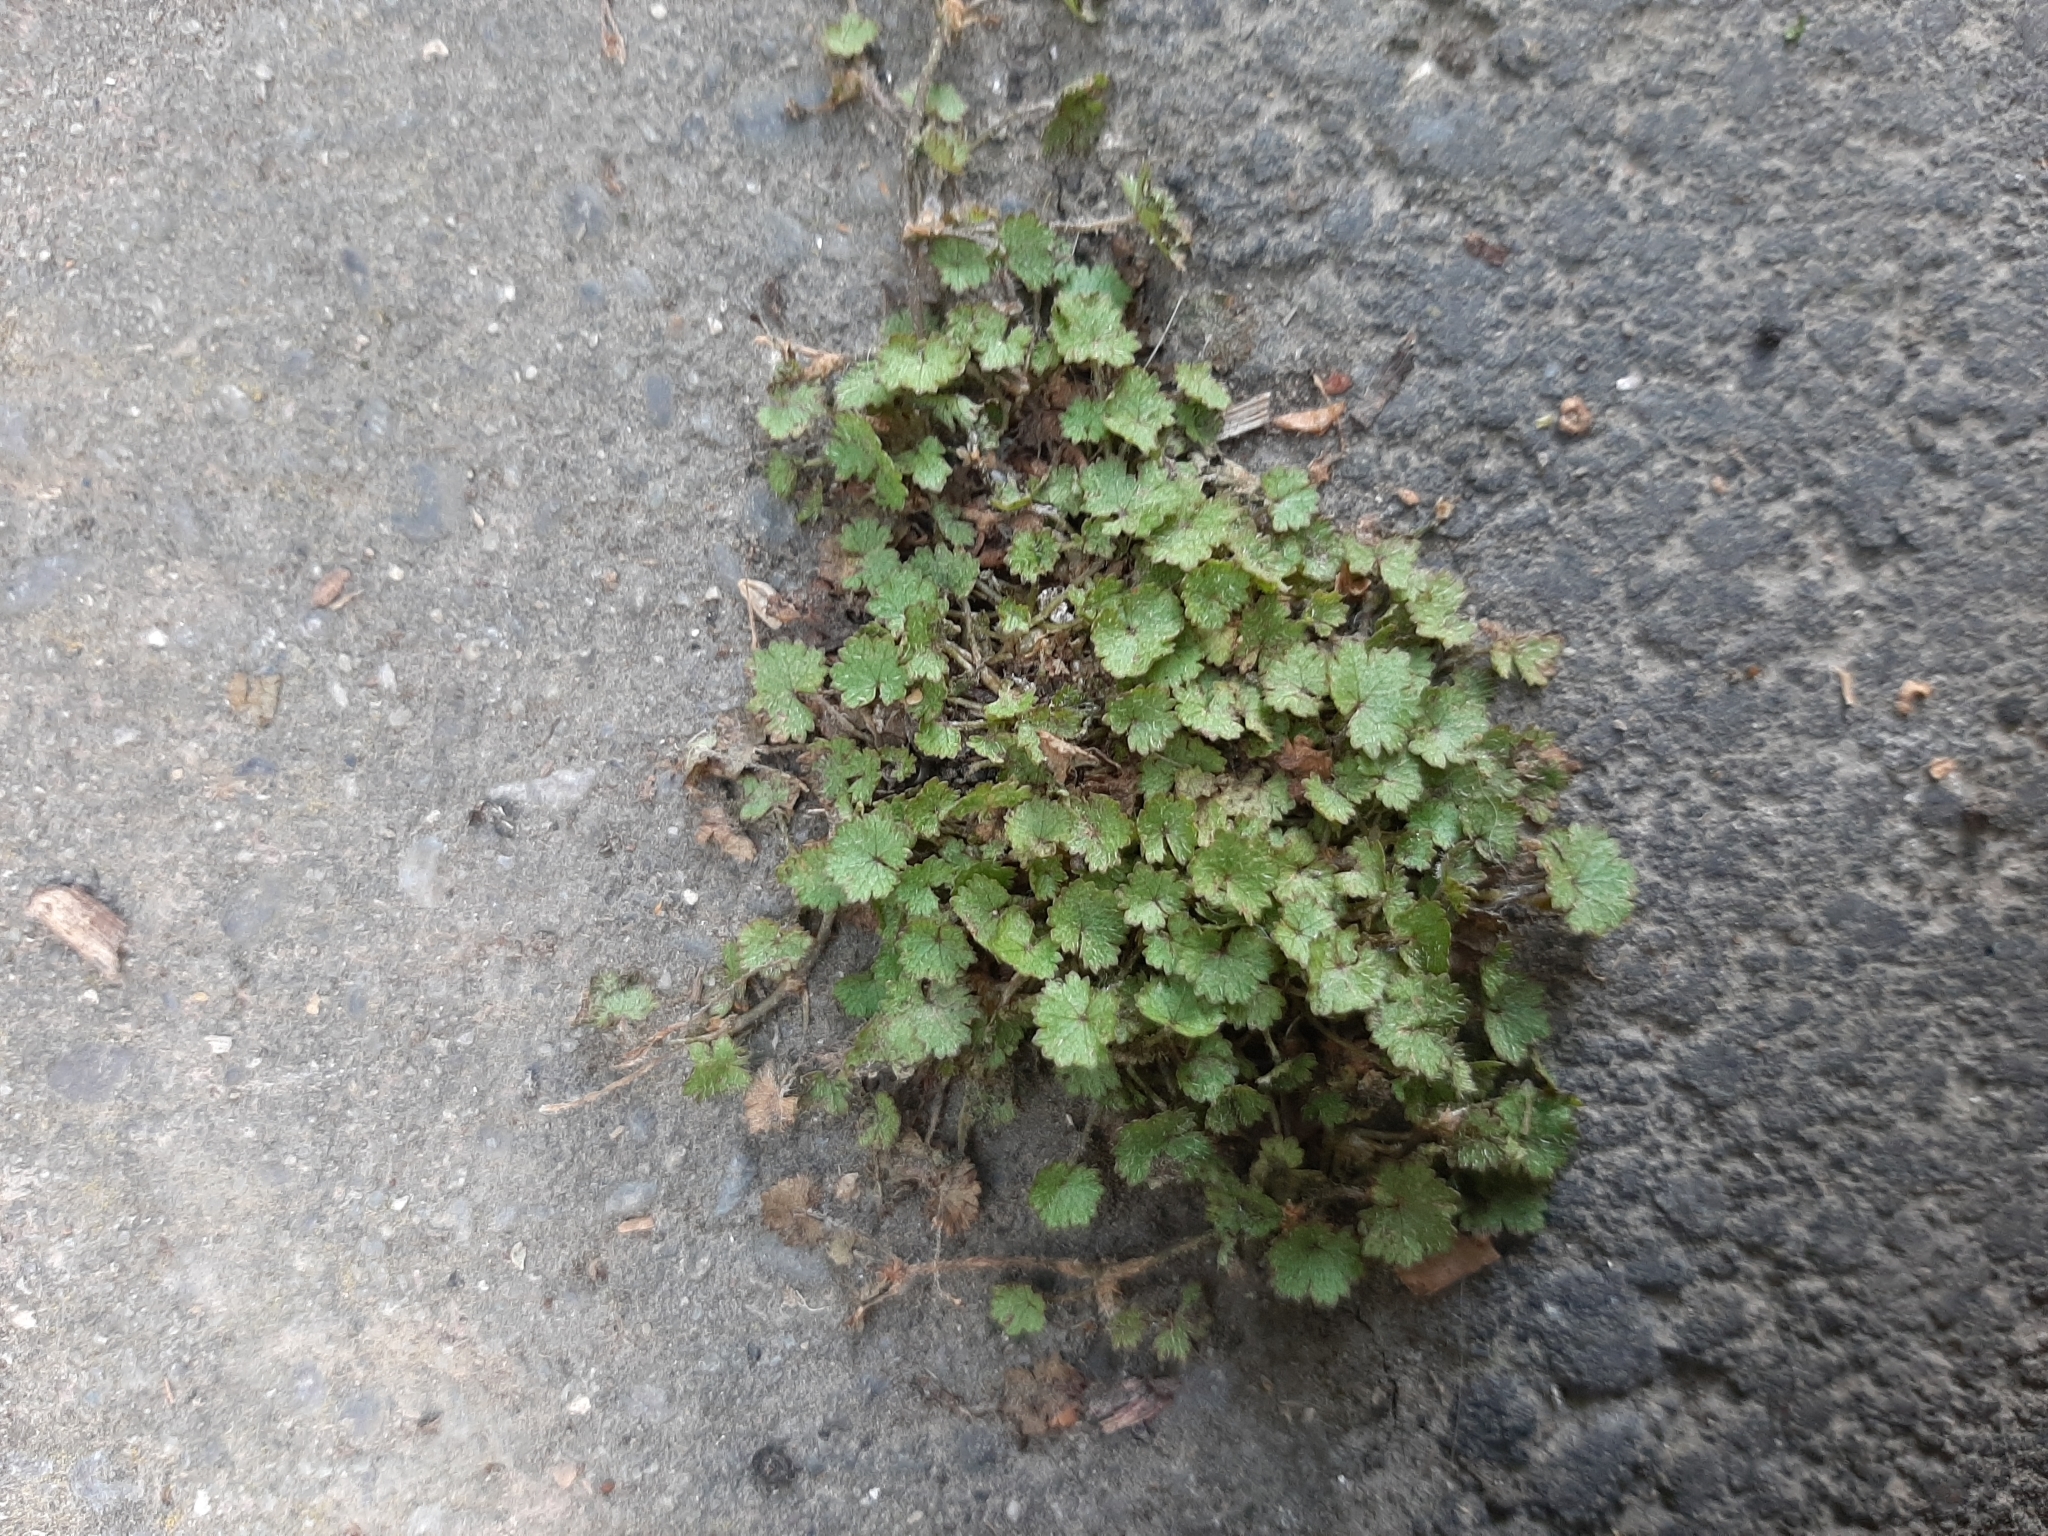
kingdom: Plantae
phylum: Tracheophyta
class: Magnoliopsida
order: Apiales
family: Araliaceae
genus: Hydrocotyle
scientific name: Hydrocotyle moschata
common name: Hairy pennywort
